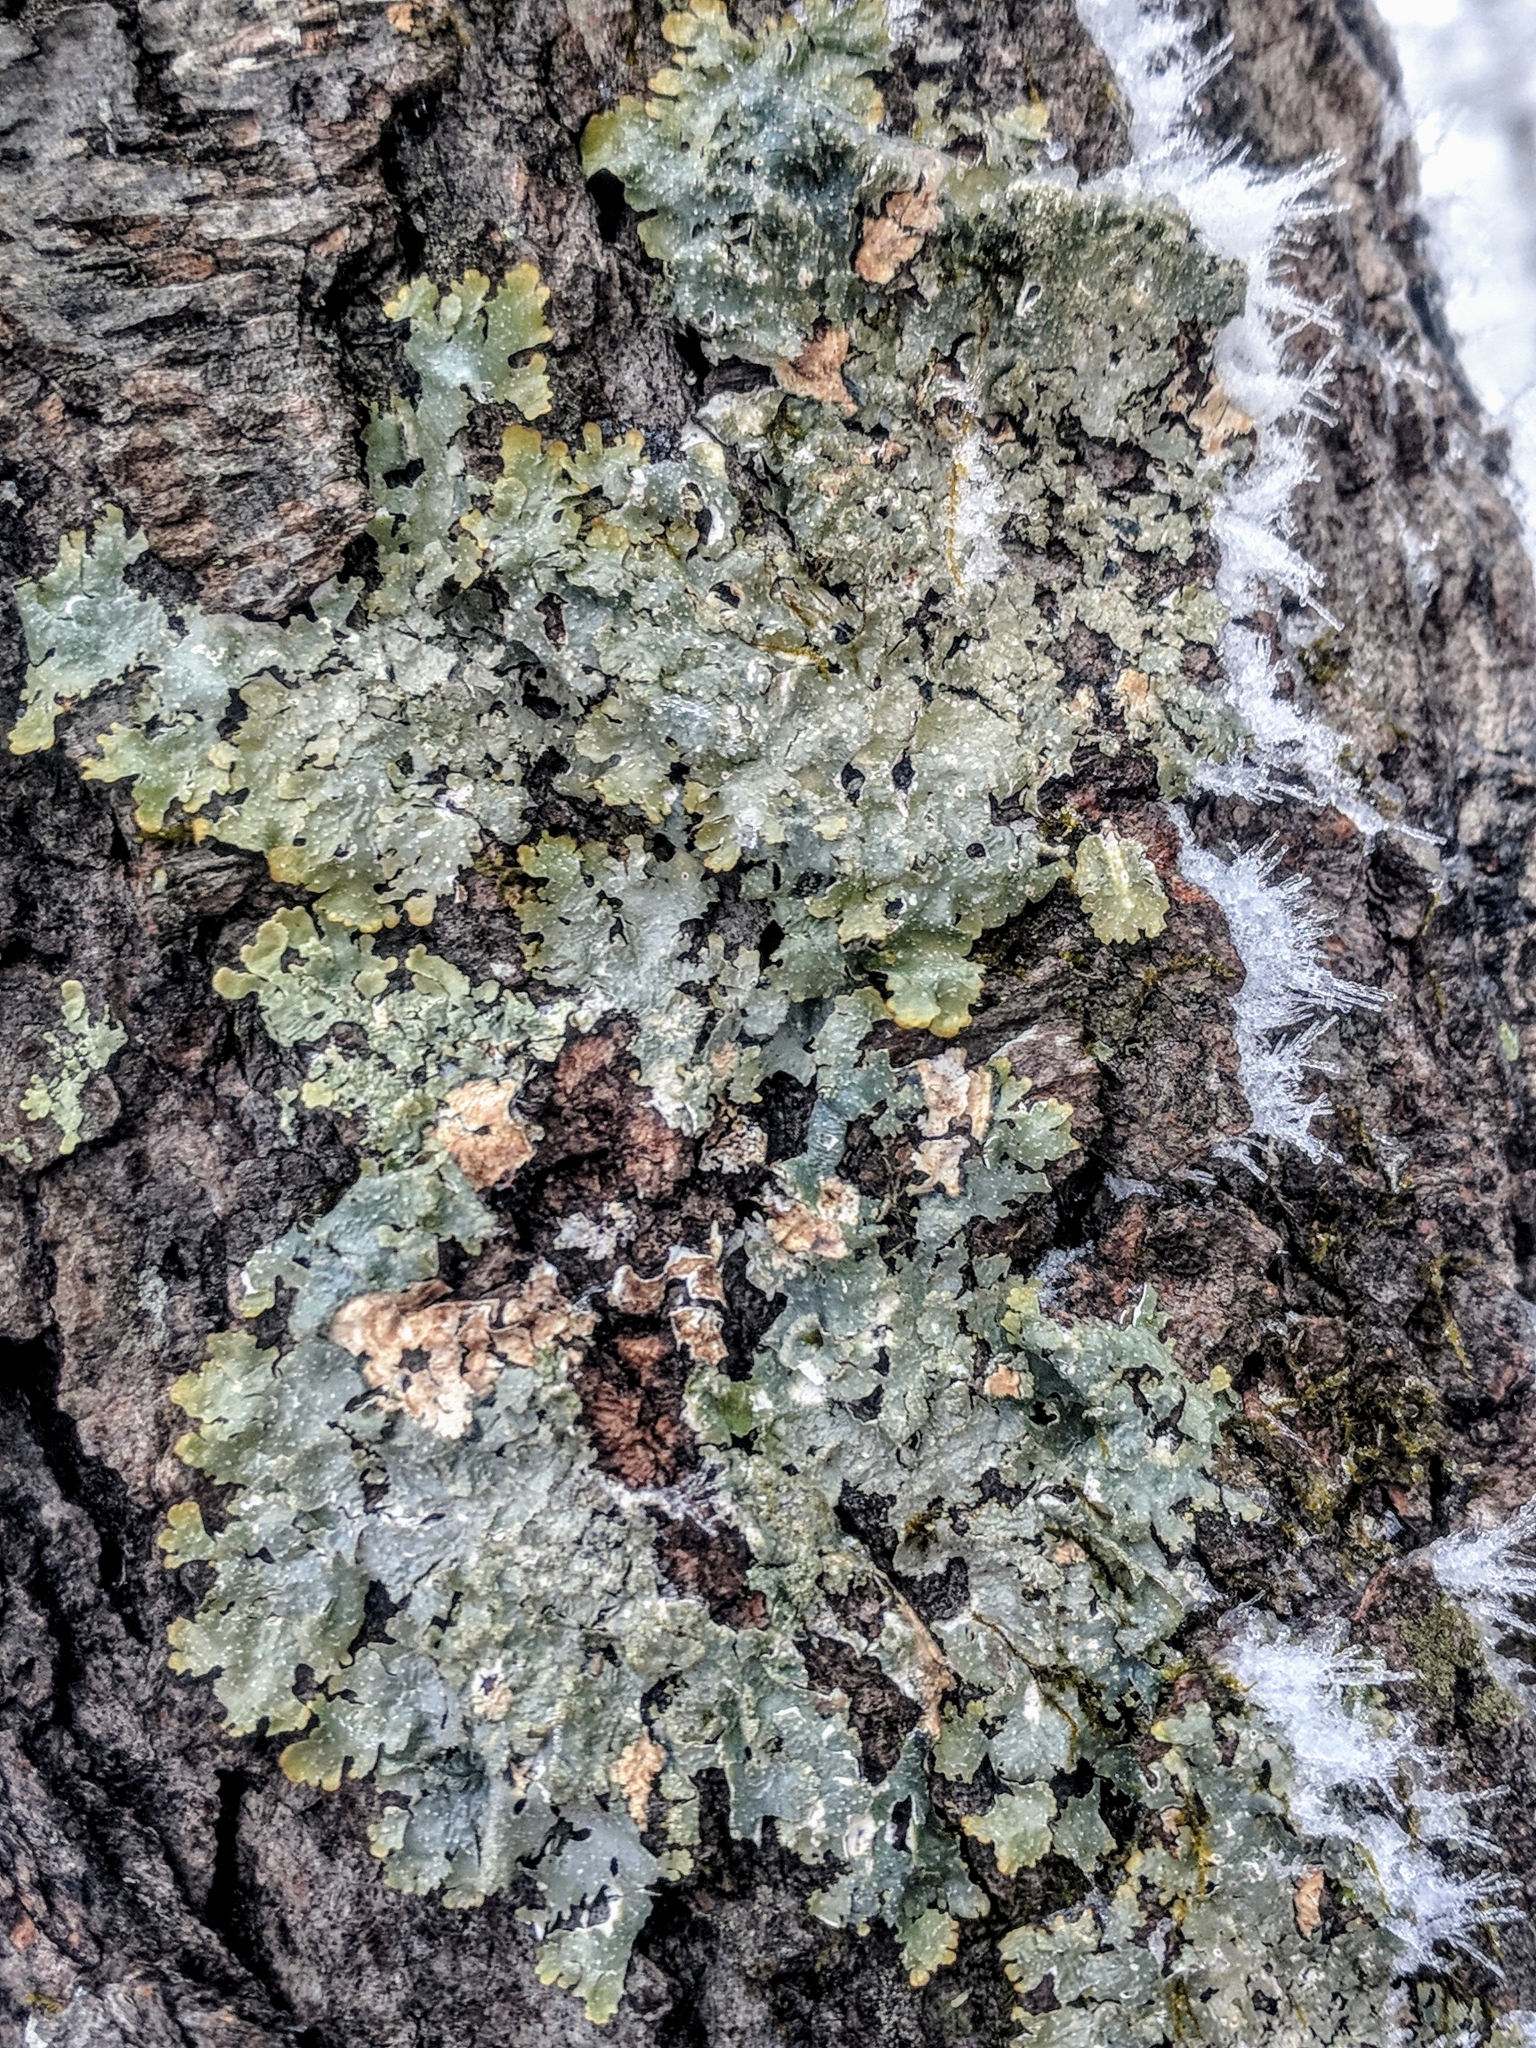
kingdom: Fungi
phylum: Ascomycota
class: Lecanoromycetes
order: Lecanorales
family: Parmeliaceae
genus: Punctelia
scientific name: Punctelia rudecta
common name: Rough speckled shield lichen
